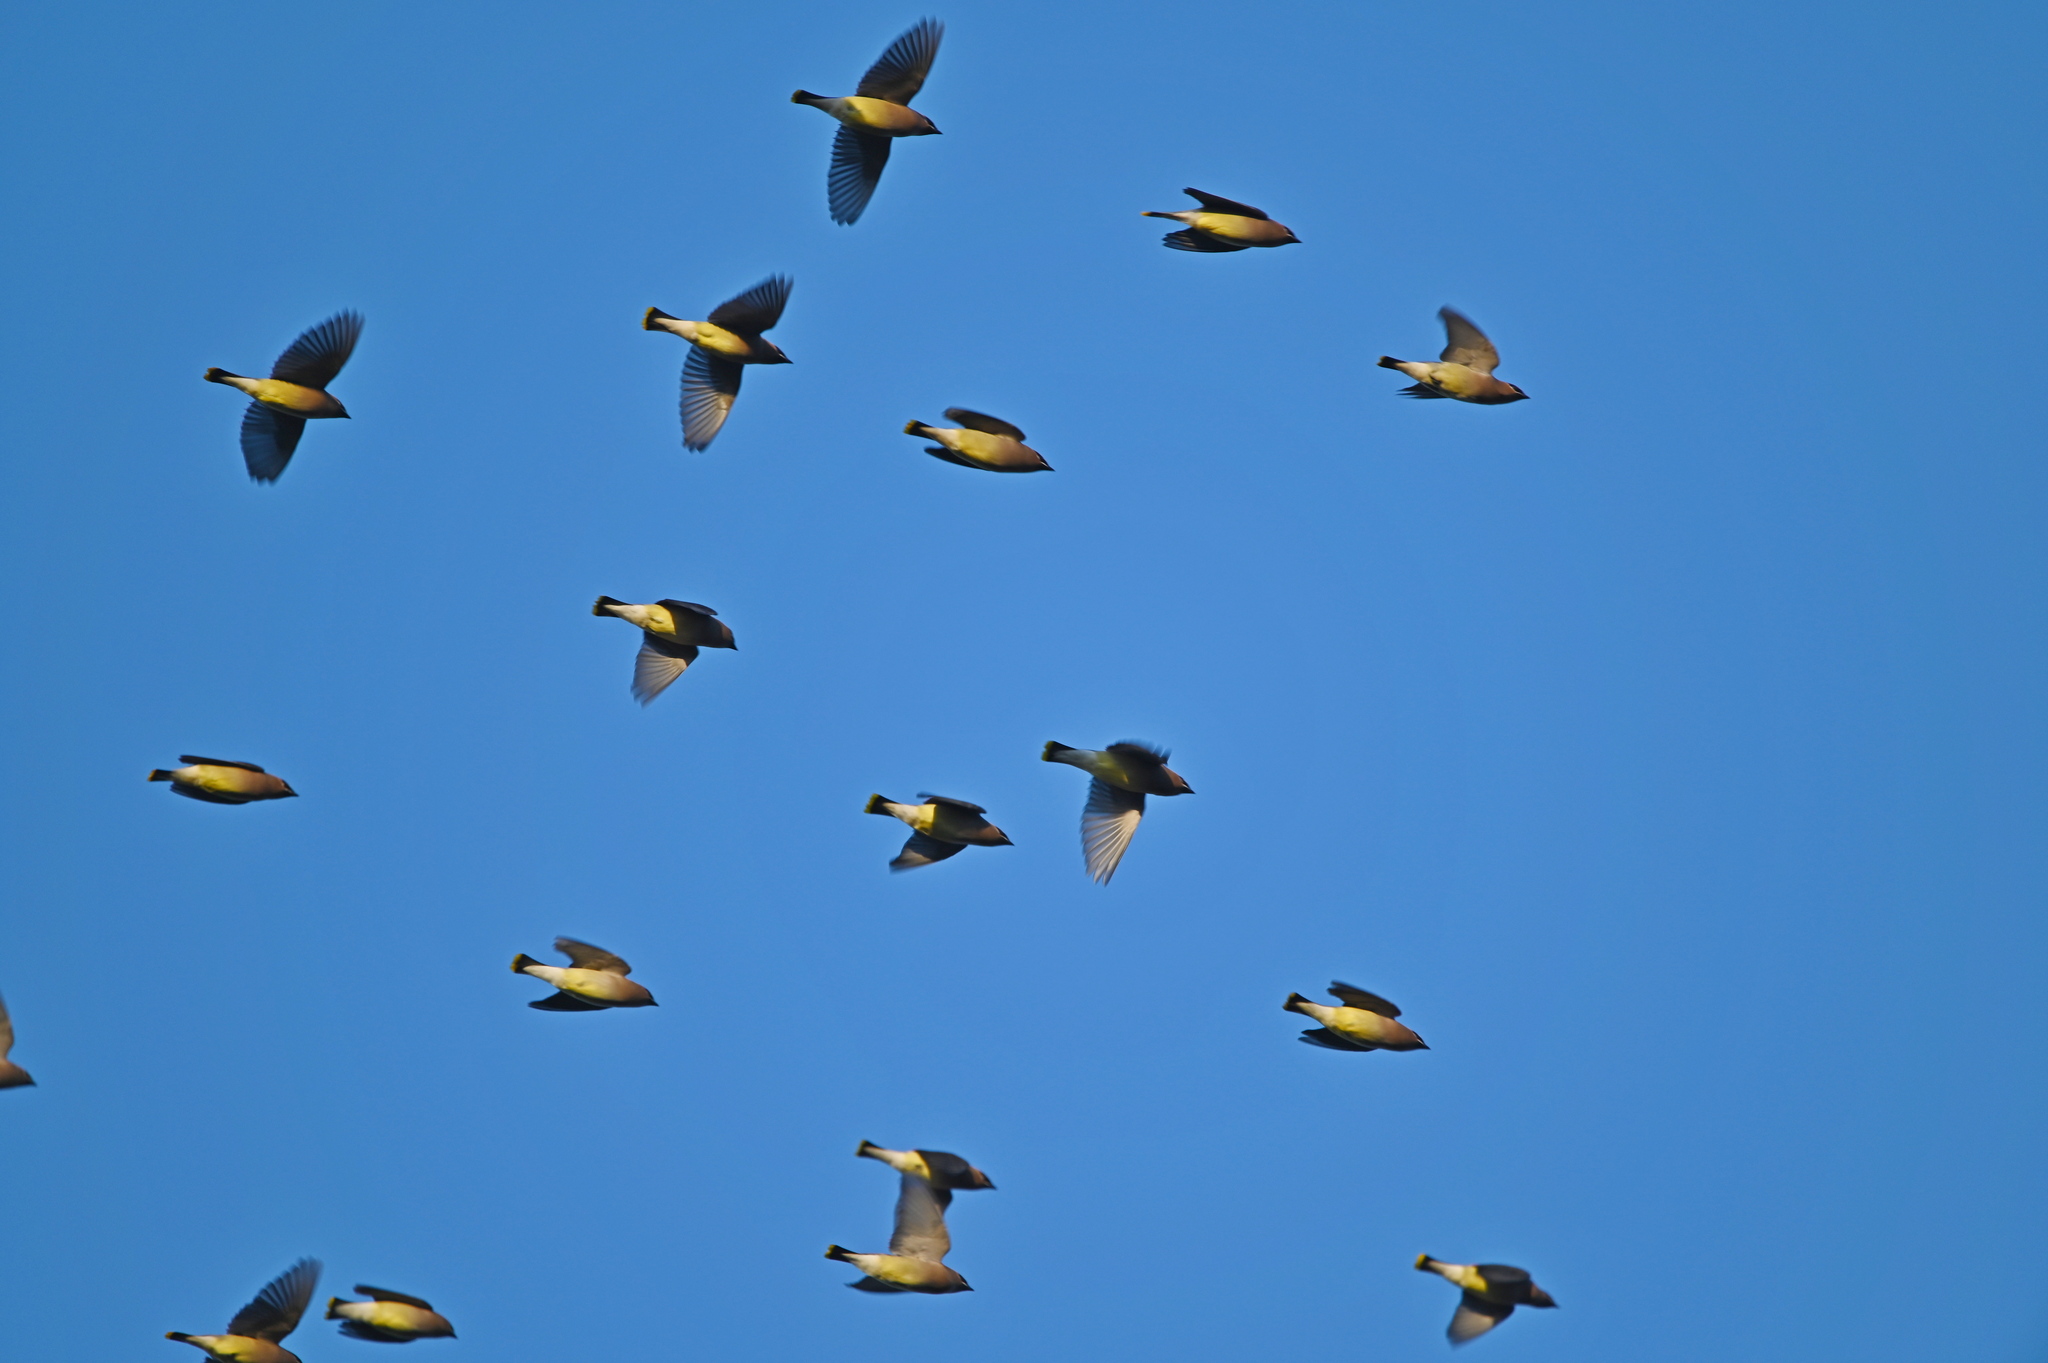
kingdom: Animalia
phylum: Chordata
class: Aves
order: Passeriformes
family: Bombycillidae
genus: Bombycilla
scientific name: Bombycilla cedrorum
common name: Cedar waxwing
